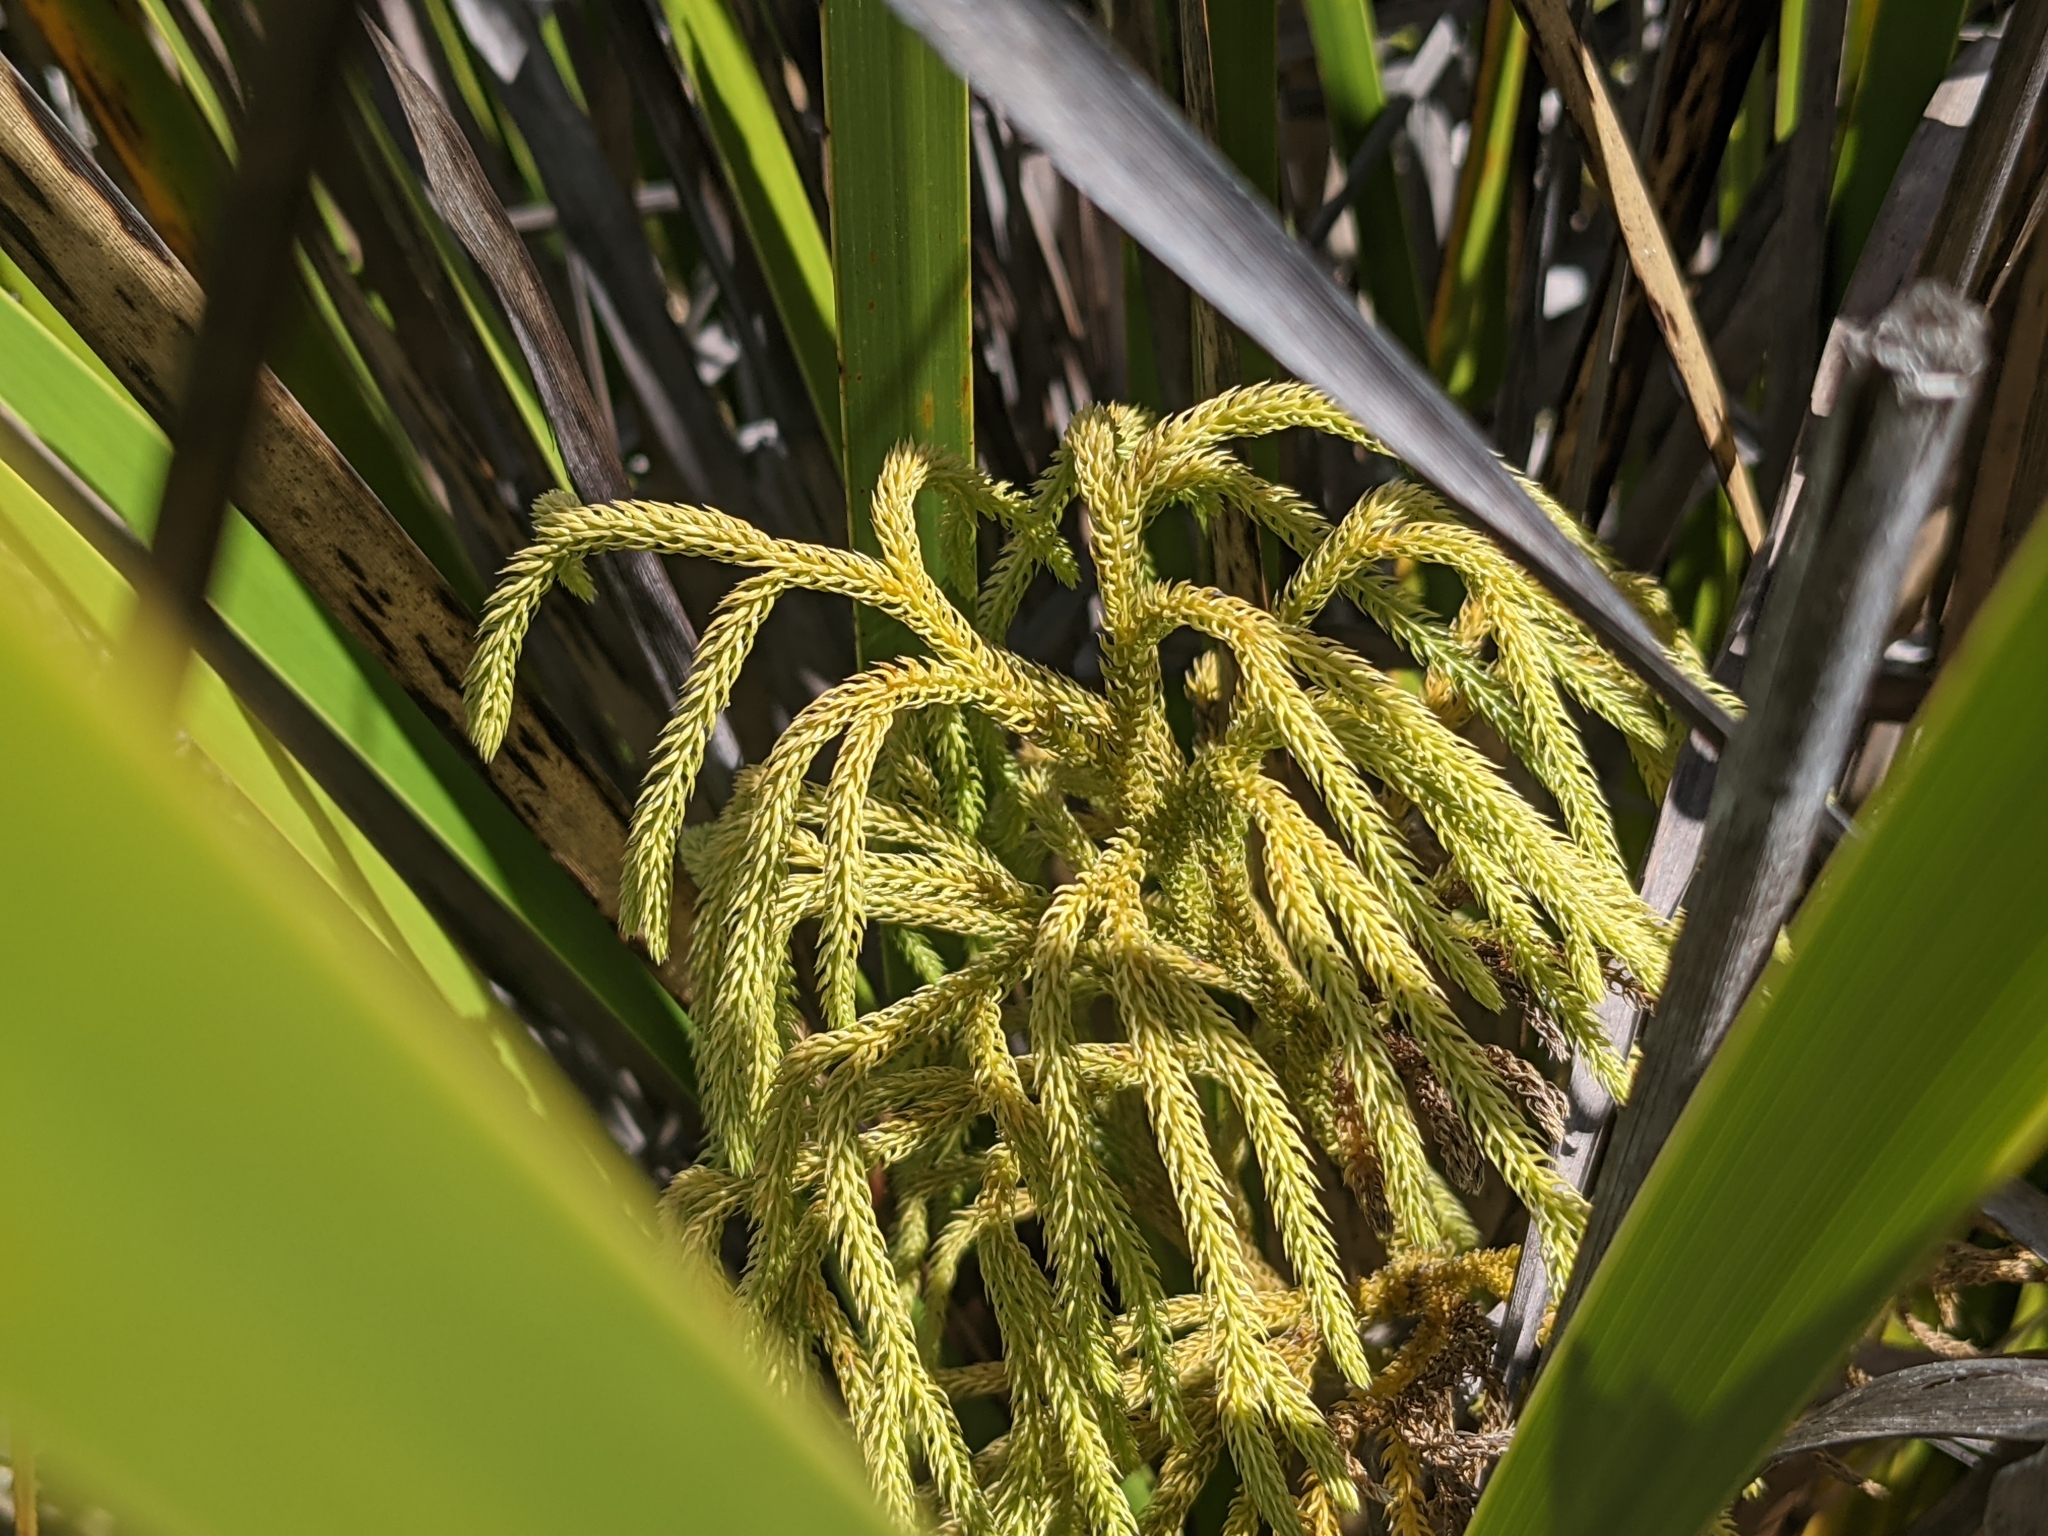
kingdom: Plantae
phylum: Tracheophyta
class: Lycopodiopsida
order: Lycopodiales
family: Lycopodiaceae
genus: Palhinhaea
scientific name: Palhinhaea cernua
